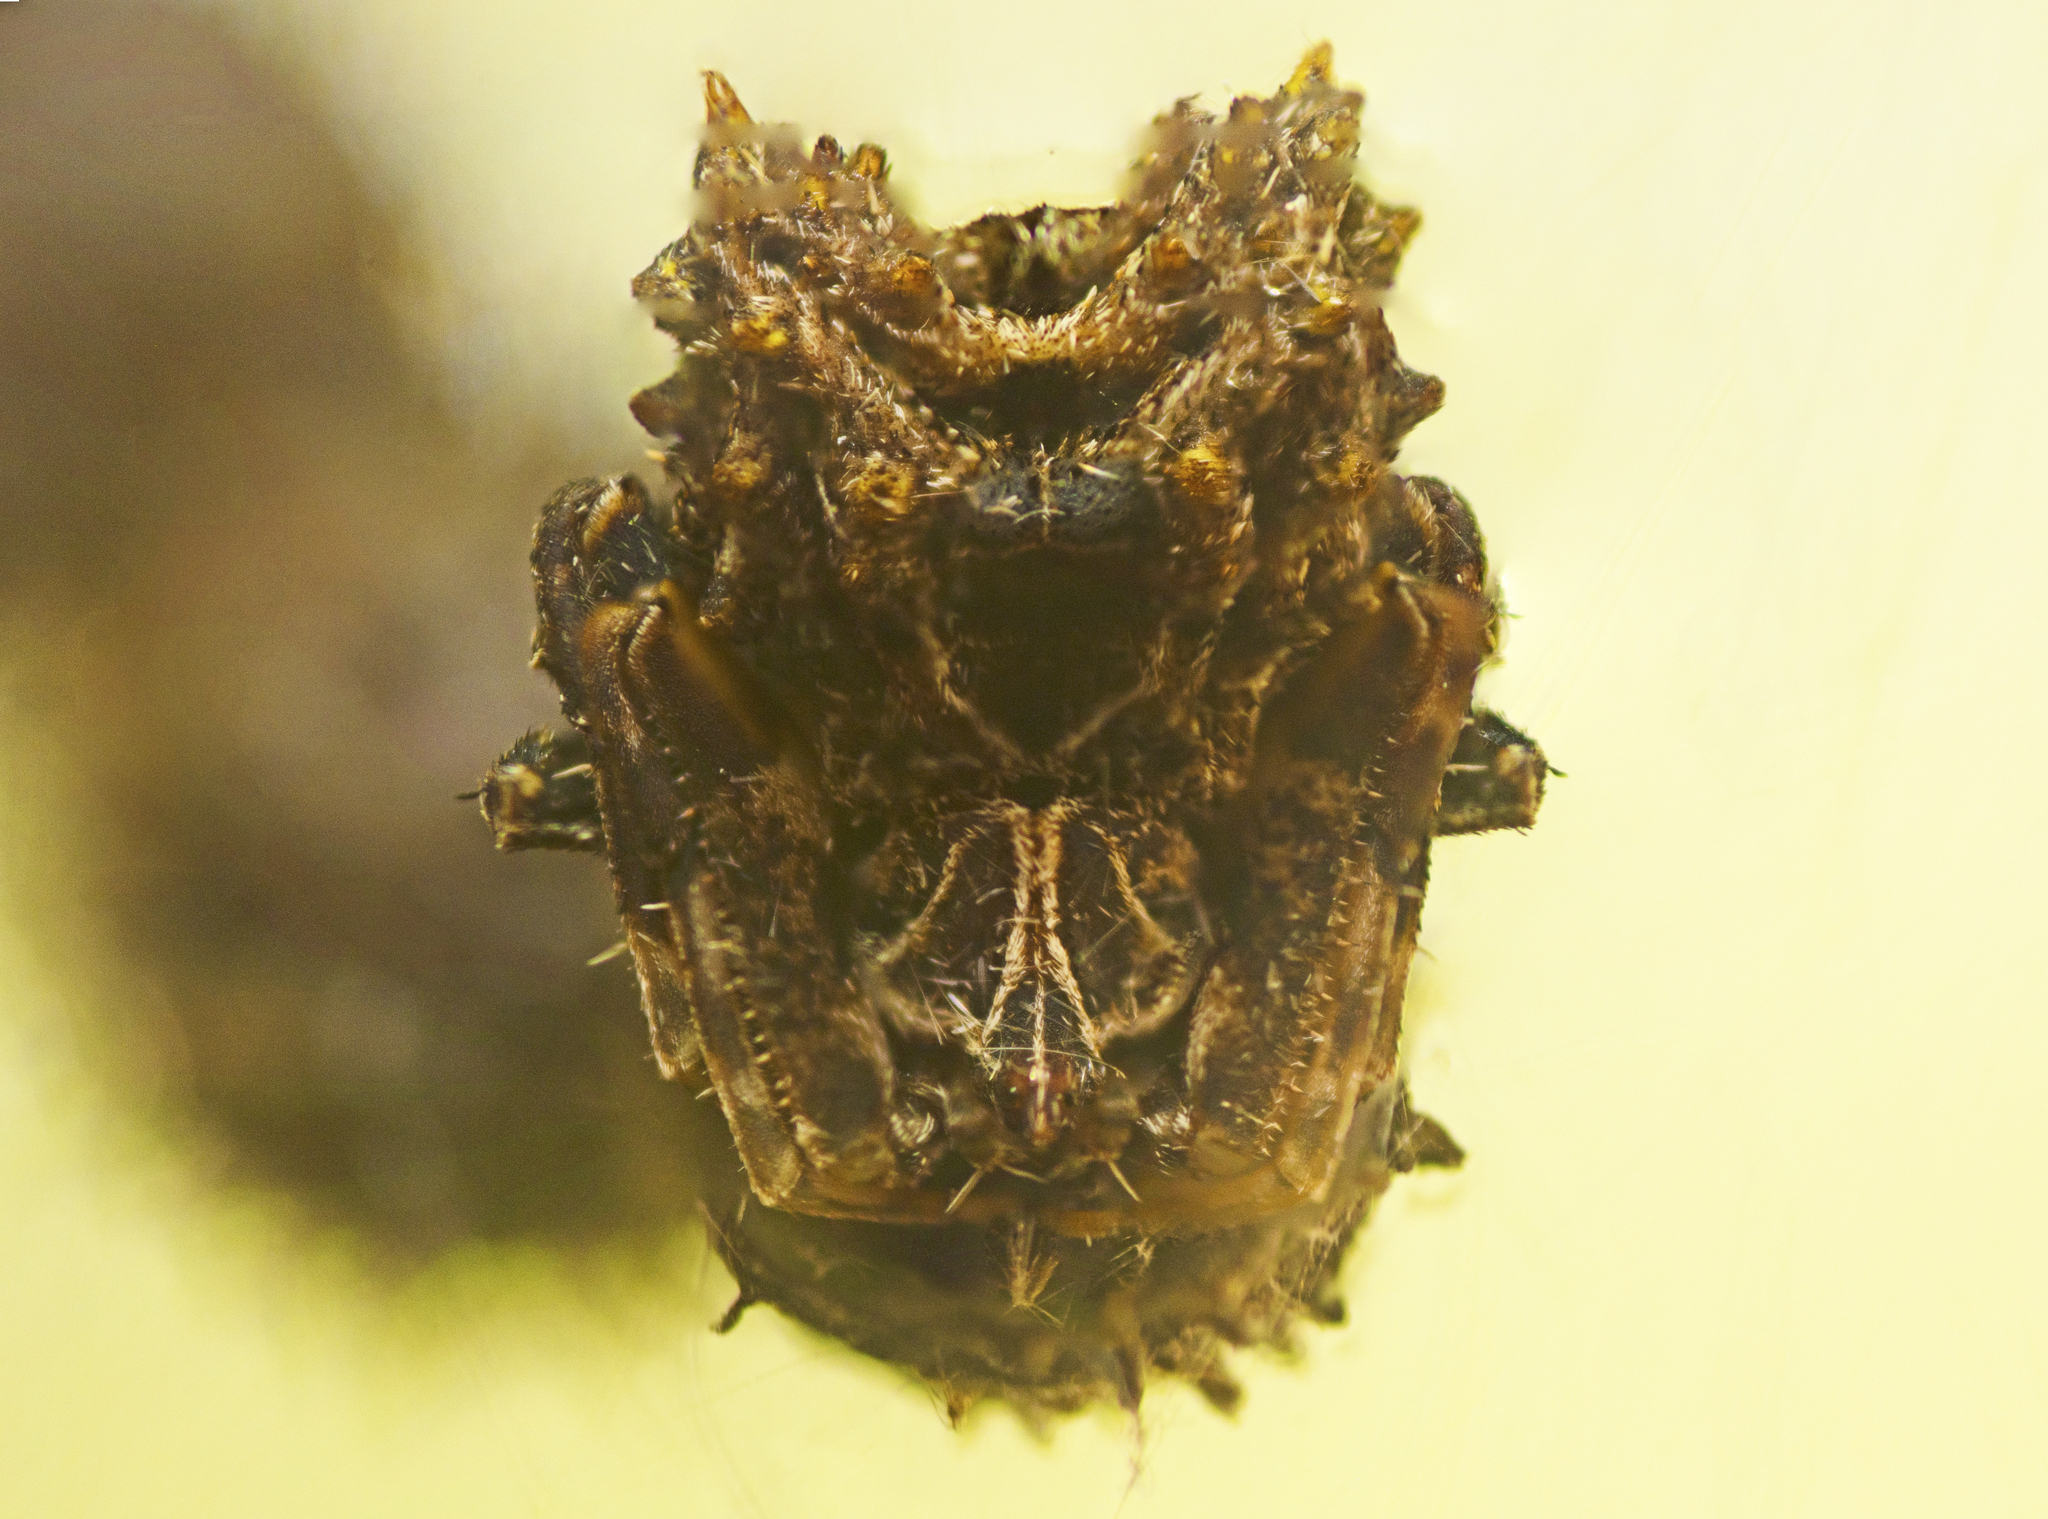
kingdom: Animalia
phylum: Arthropoda
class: Arachnida
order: Araneae
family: Araneidae
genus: Celaenia
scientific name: Celaenia calotoides
